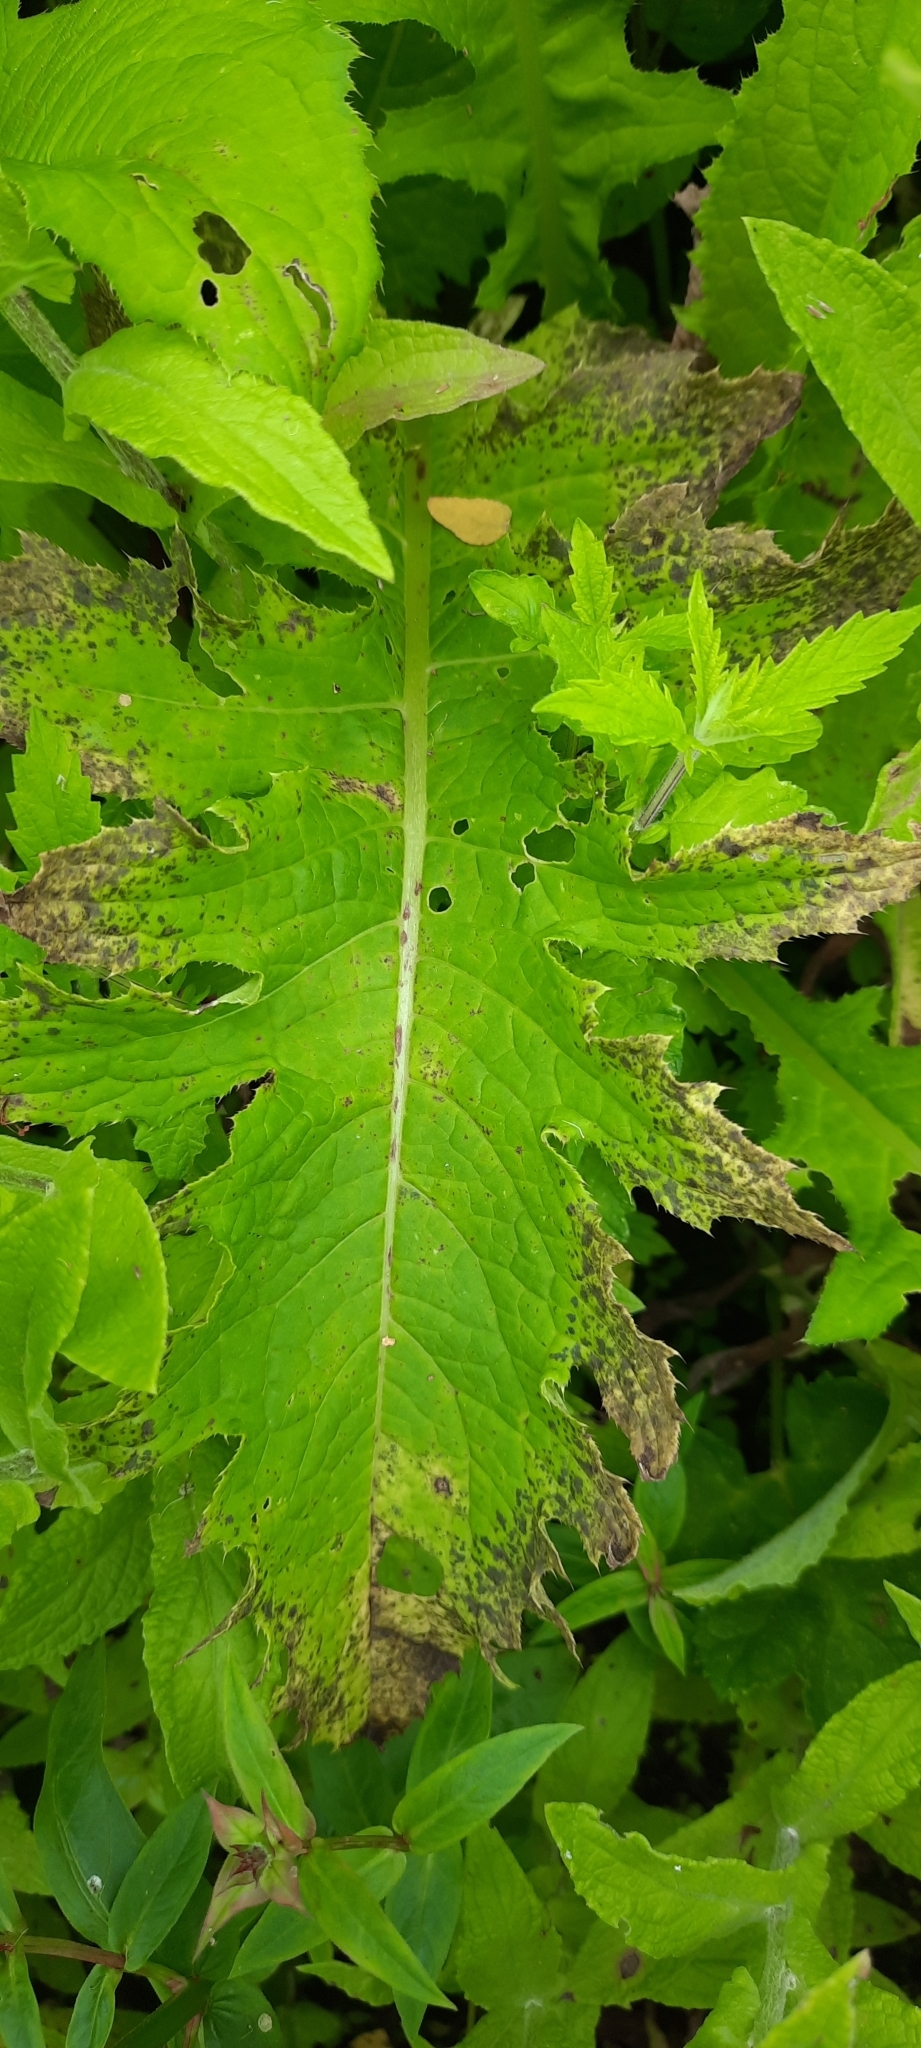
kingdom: Plantae
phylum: Tracheophyta
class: Magnoliopsida
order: Asterales
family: Asteraceae
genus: Cirsium
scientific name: Cirsium oleraceum
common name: Cabbage thistle
